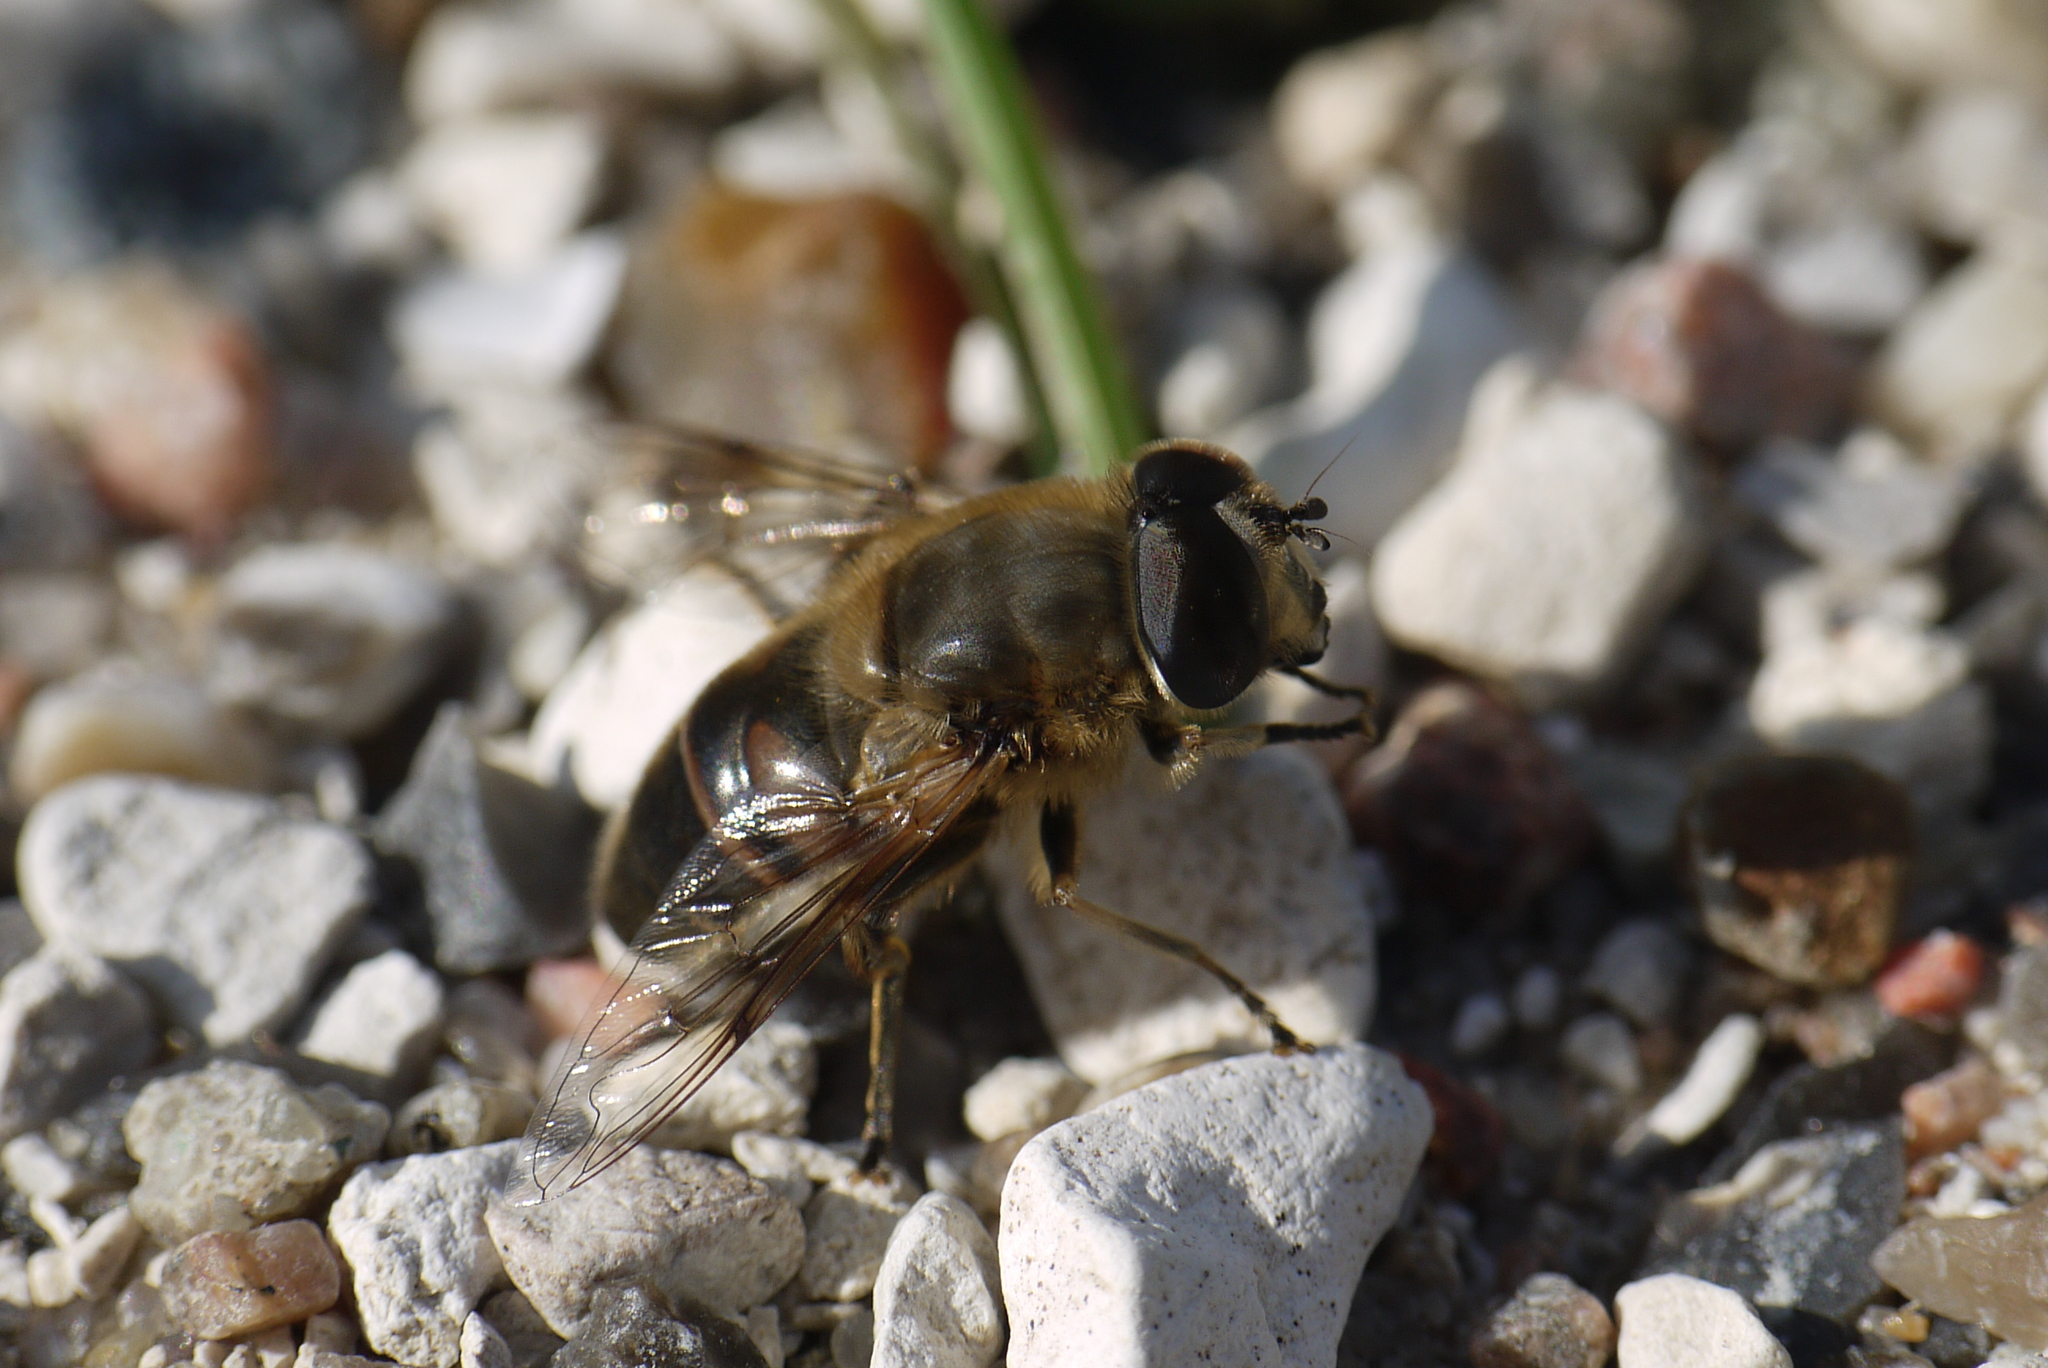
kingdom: Animalia
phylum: Arthropoda
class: Insecta
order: Diptera
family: Syrphidae
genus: Eristalis
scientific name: Eristalis tenax
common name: Drone fly
